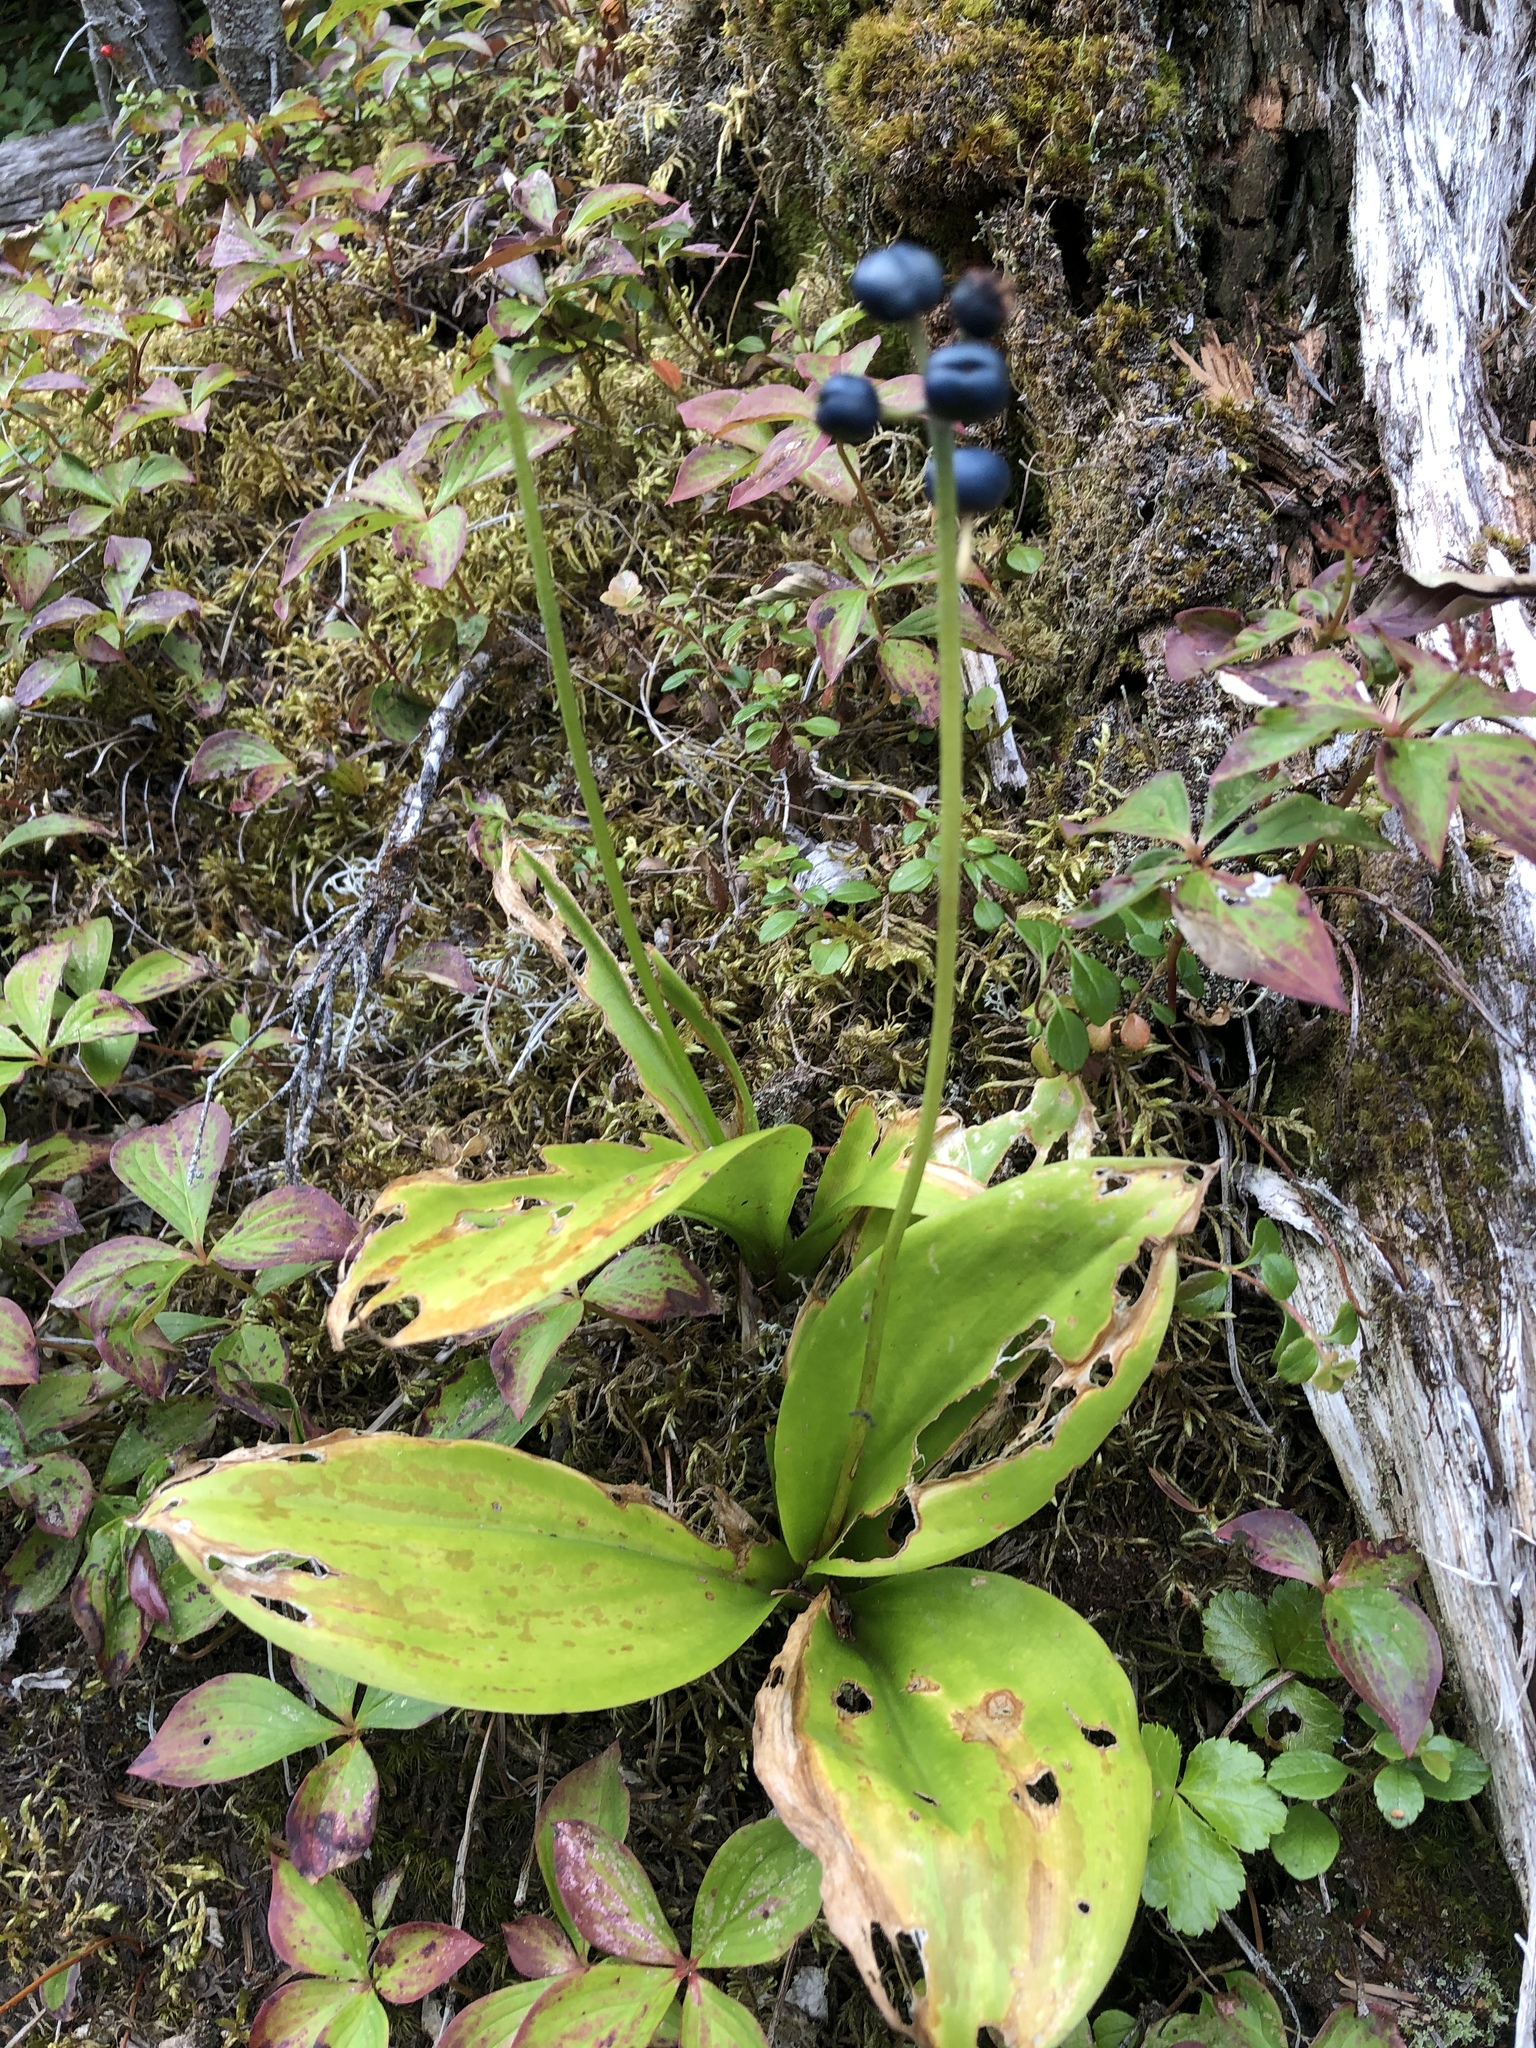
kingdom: Plantae
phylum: Tracheophyta
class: Liliopsida
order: Liliales
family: Liliaceae
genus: Clintonia
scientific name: Clintonia borealis
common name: Yellow clintonia
